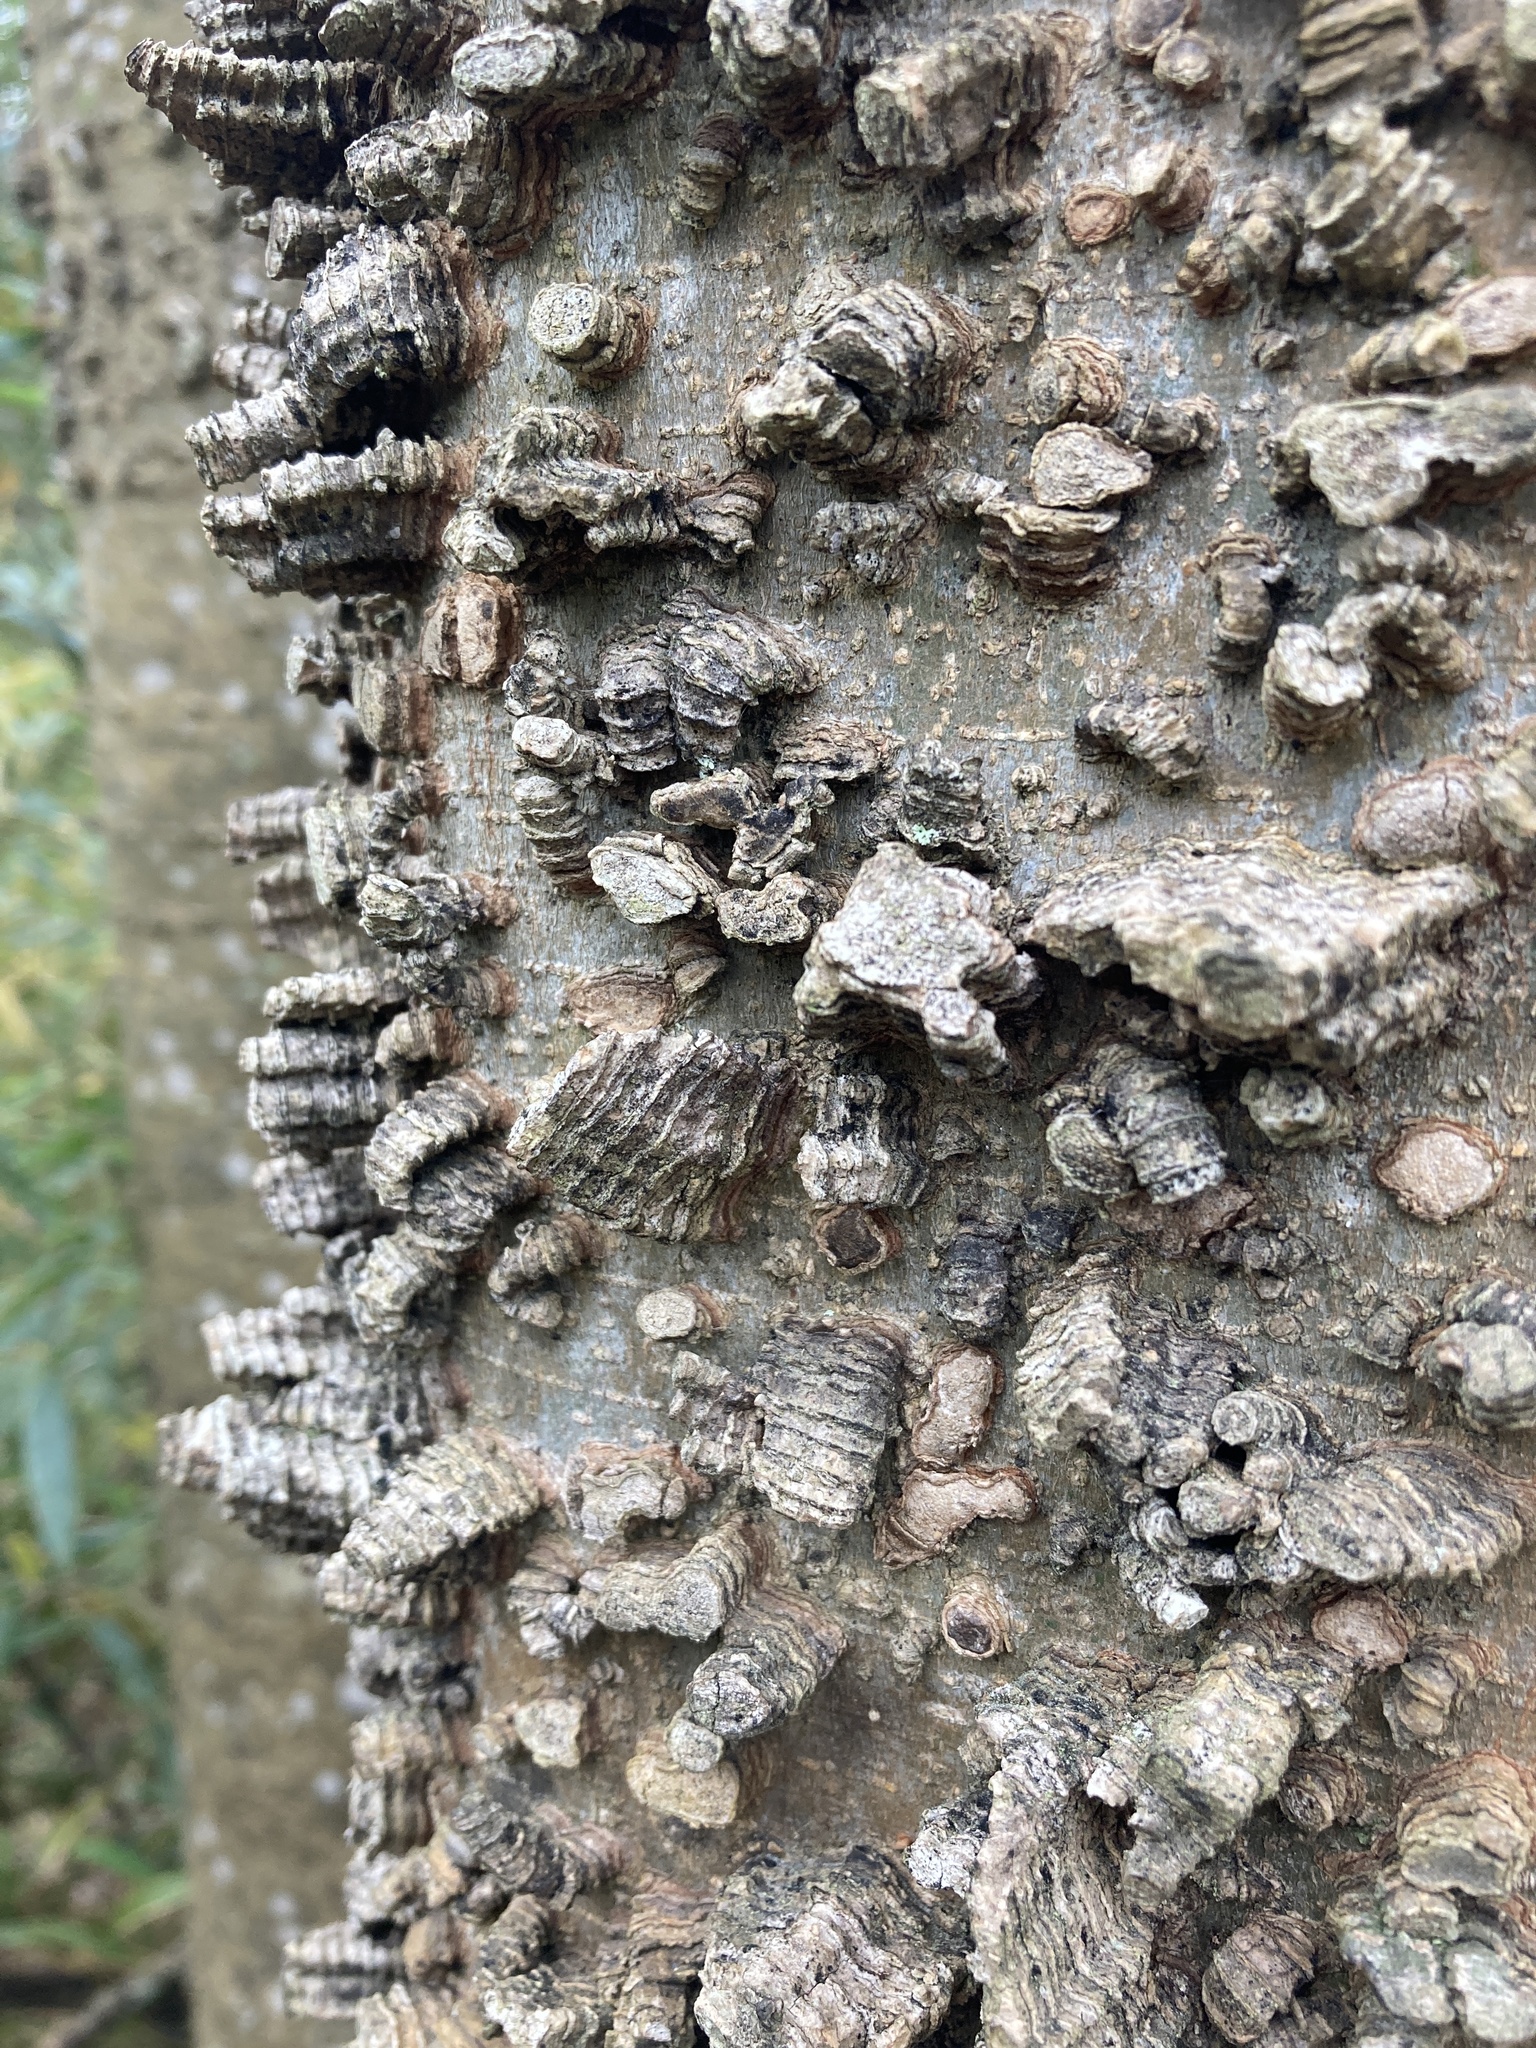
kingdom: Plantae
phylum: Tracheophyta
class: Magnoliopsida
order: Rosales
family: Cannabaceae
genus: Celtis
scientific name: Celtis laevigata
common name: Sugarberry
